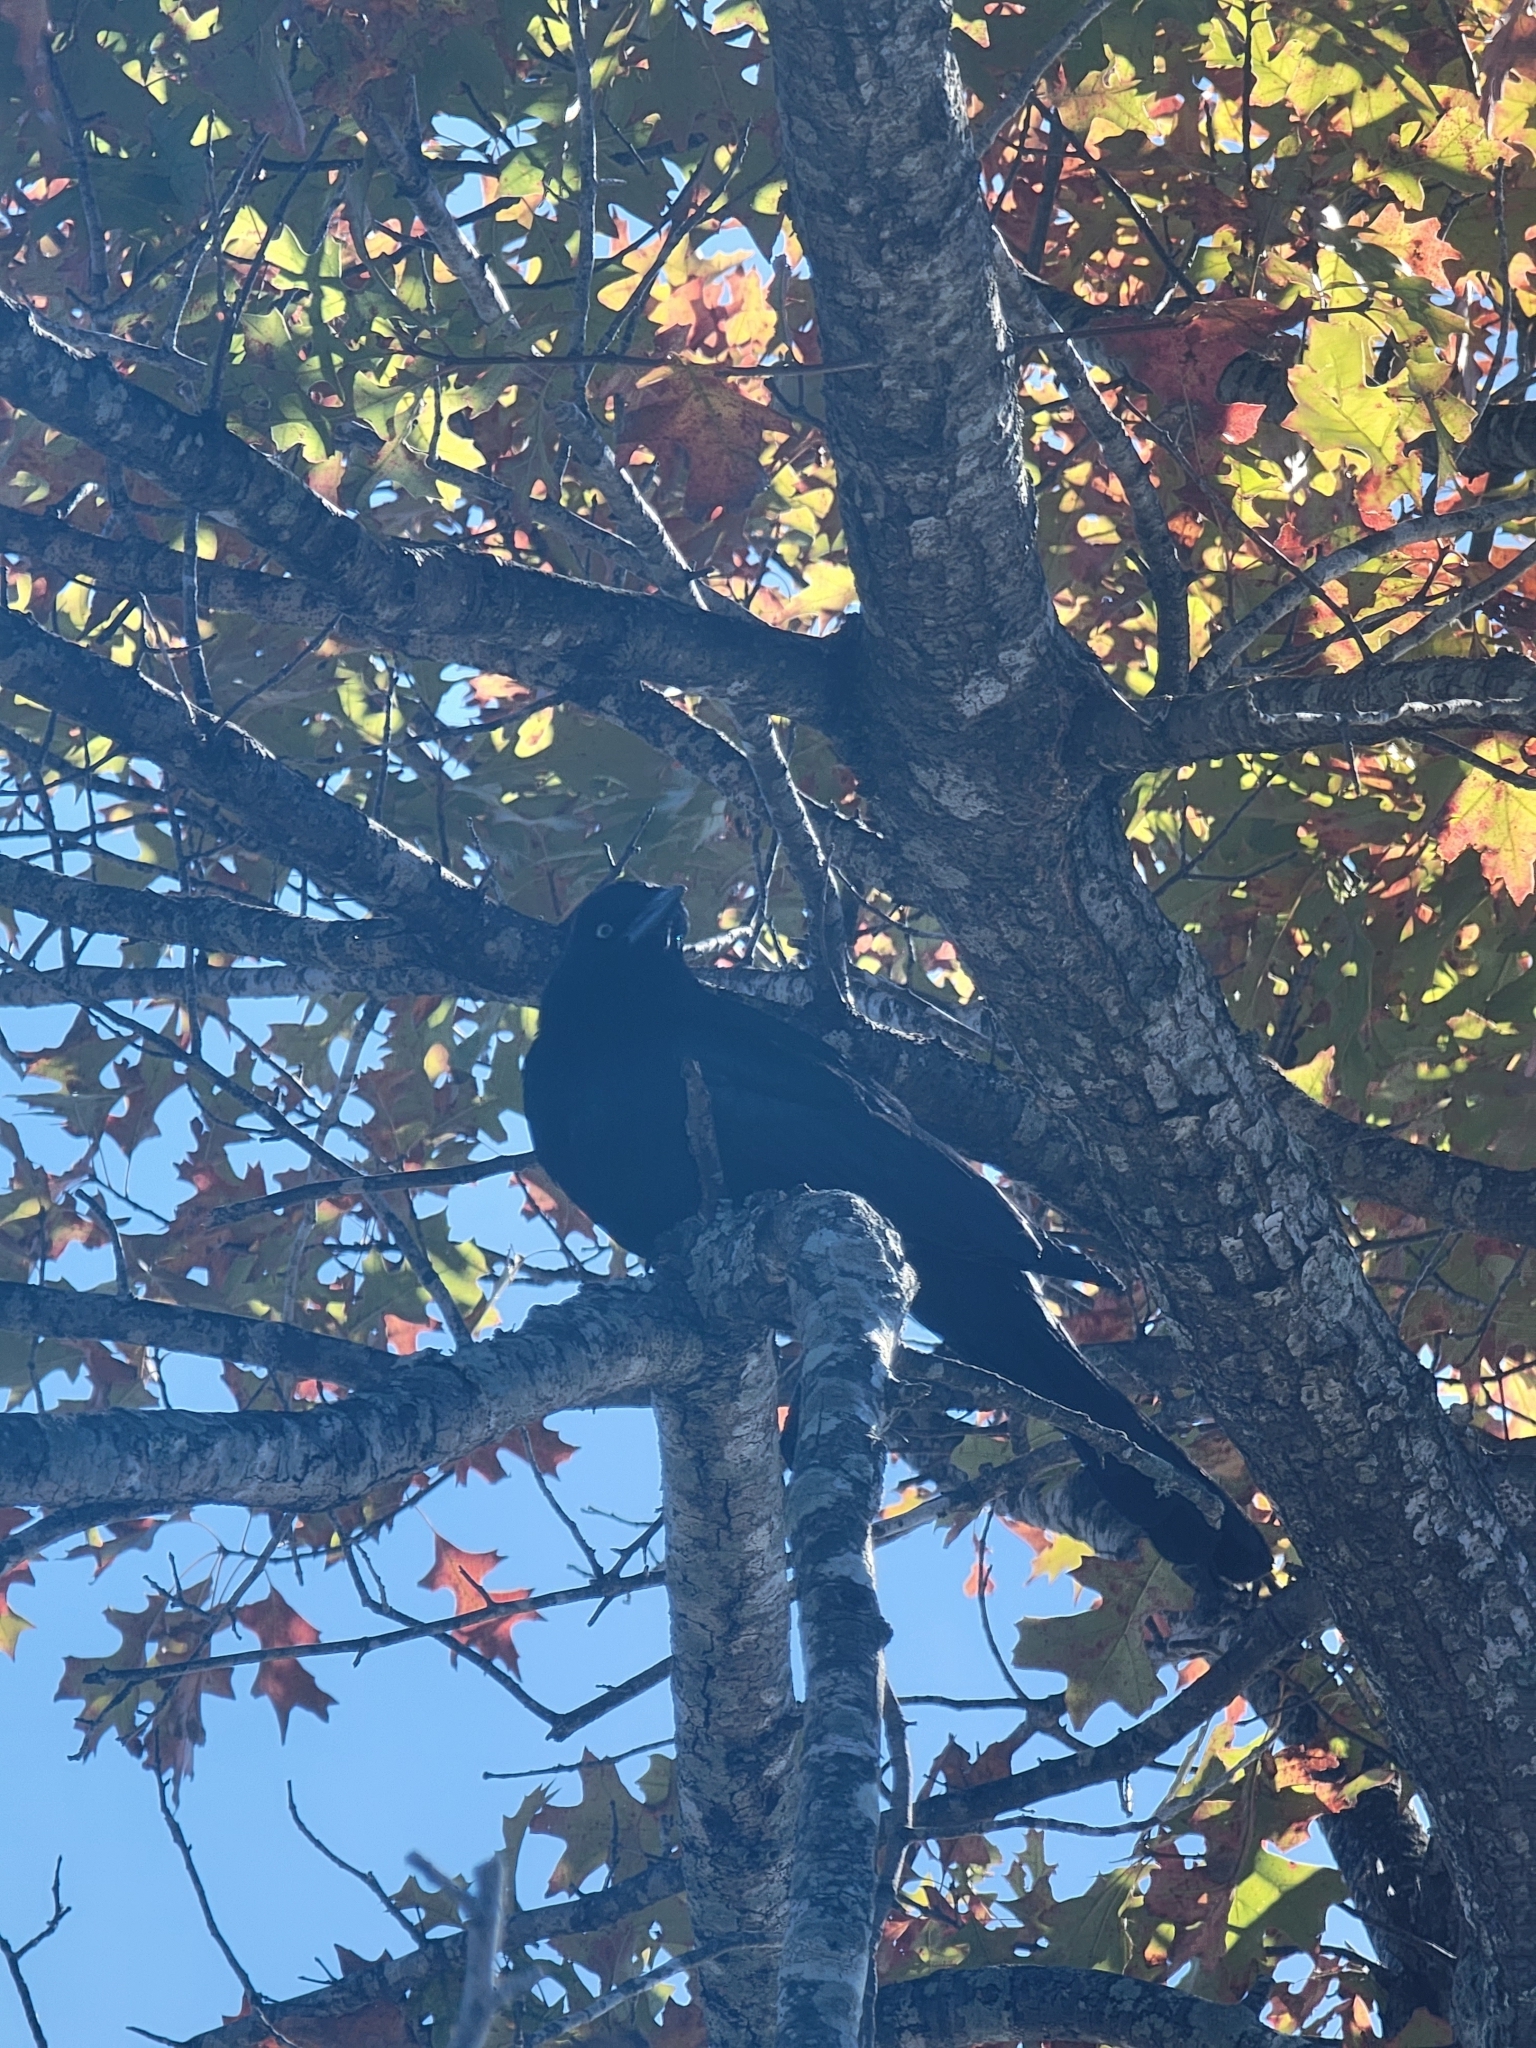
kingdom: Animalia
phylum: Chordata
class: Aves
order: Passeriformes
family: Icteridae
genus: Quiscalus
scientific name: Quiscalus major
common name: Boat-tailed grackle
